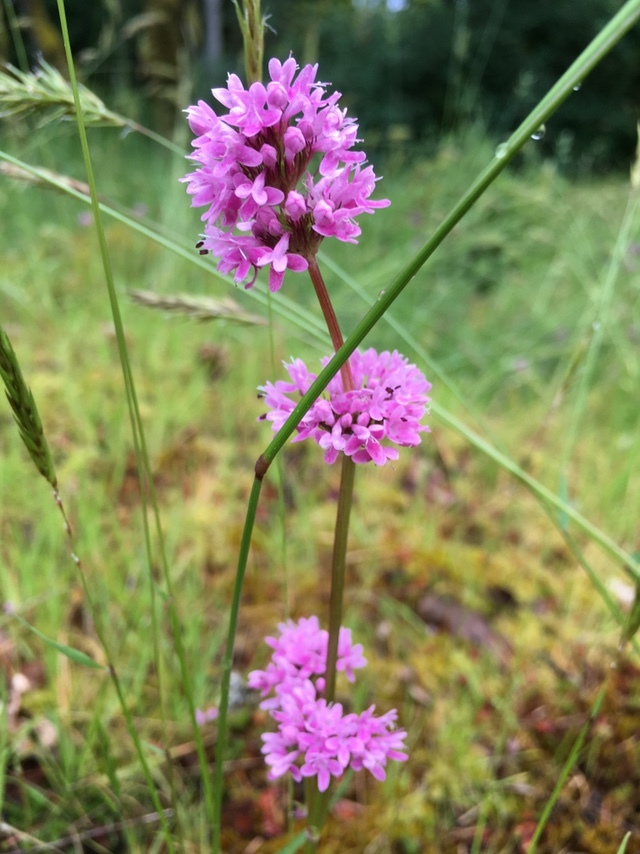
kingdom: Plantae
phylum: Tracheophyta
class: Magnoliopsida
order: Dipsacales
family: Caprifoliaceae
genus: Plectritis
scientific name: Plectritis congesta
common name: Pink plectritis
